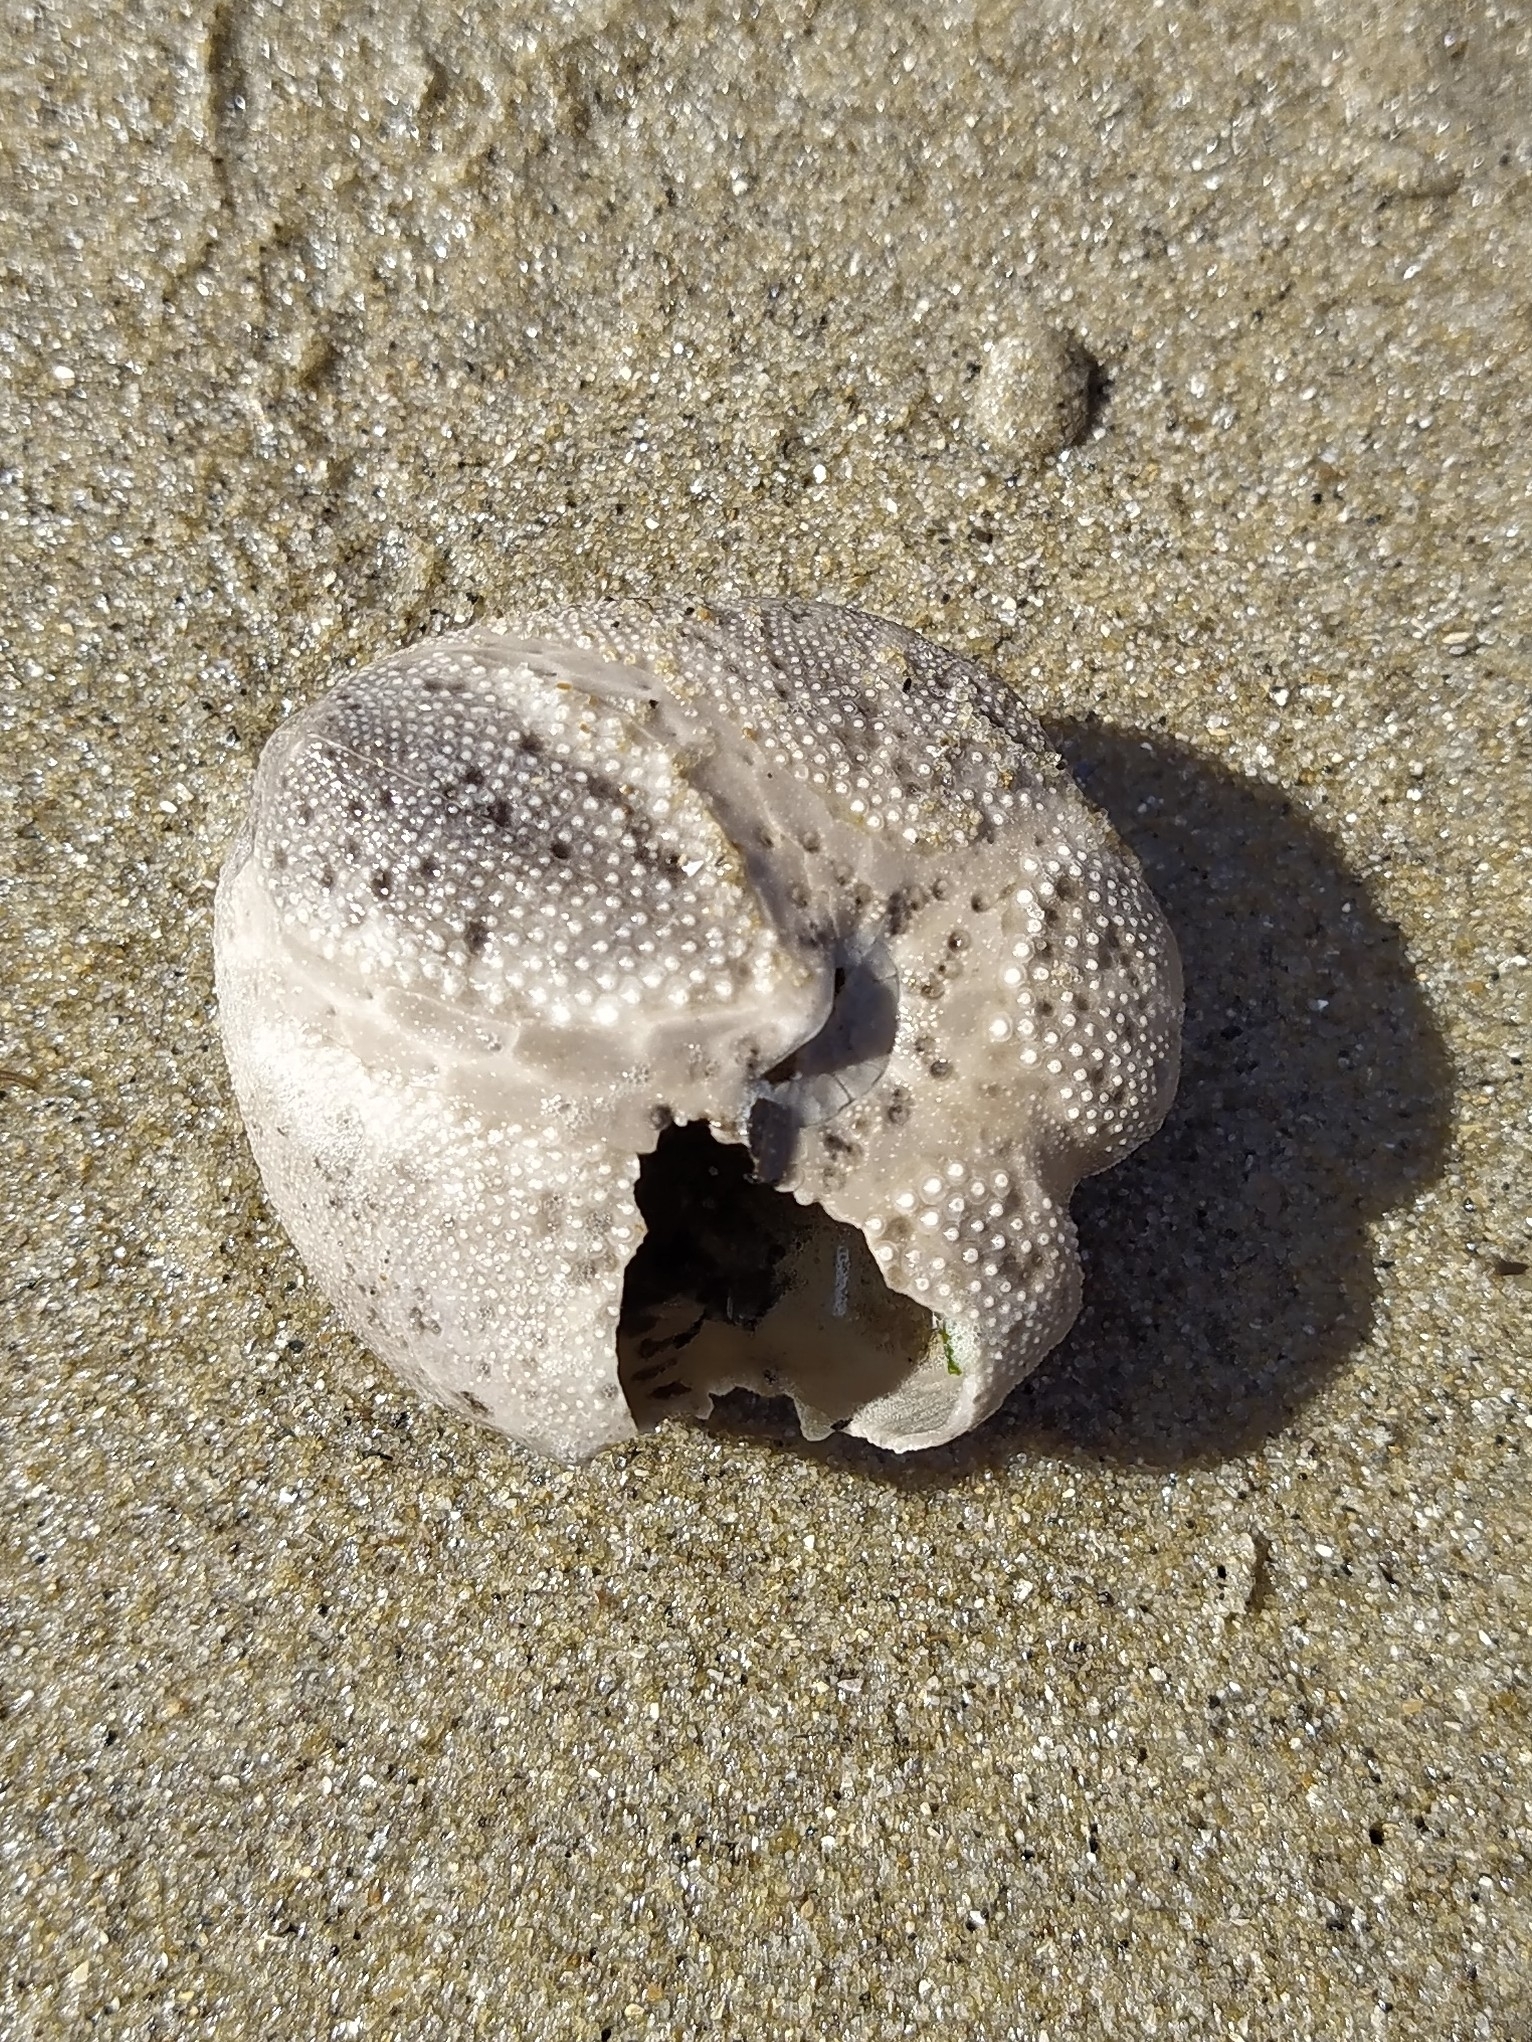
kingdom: Animalia
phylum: Echinodermata
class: Echinoidea
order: Spatangoida
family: Loveniidae
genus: Echinocardium
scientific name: Echinocardium cordatum
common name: Heart-urchin
